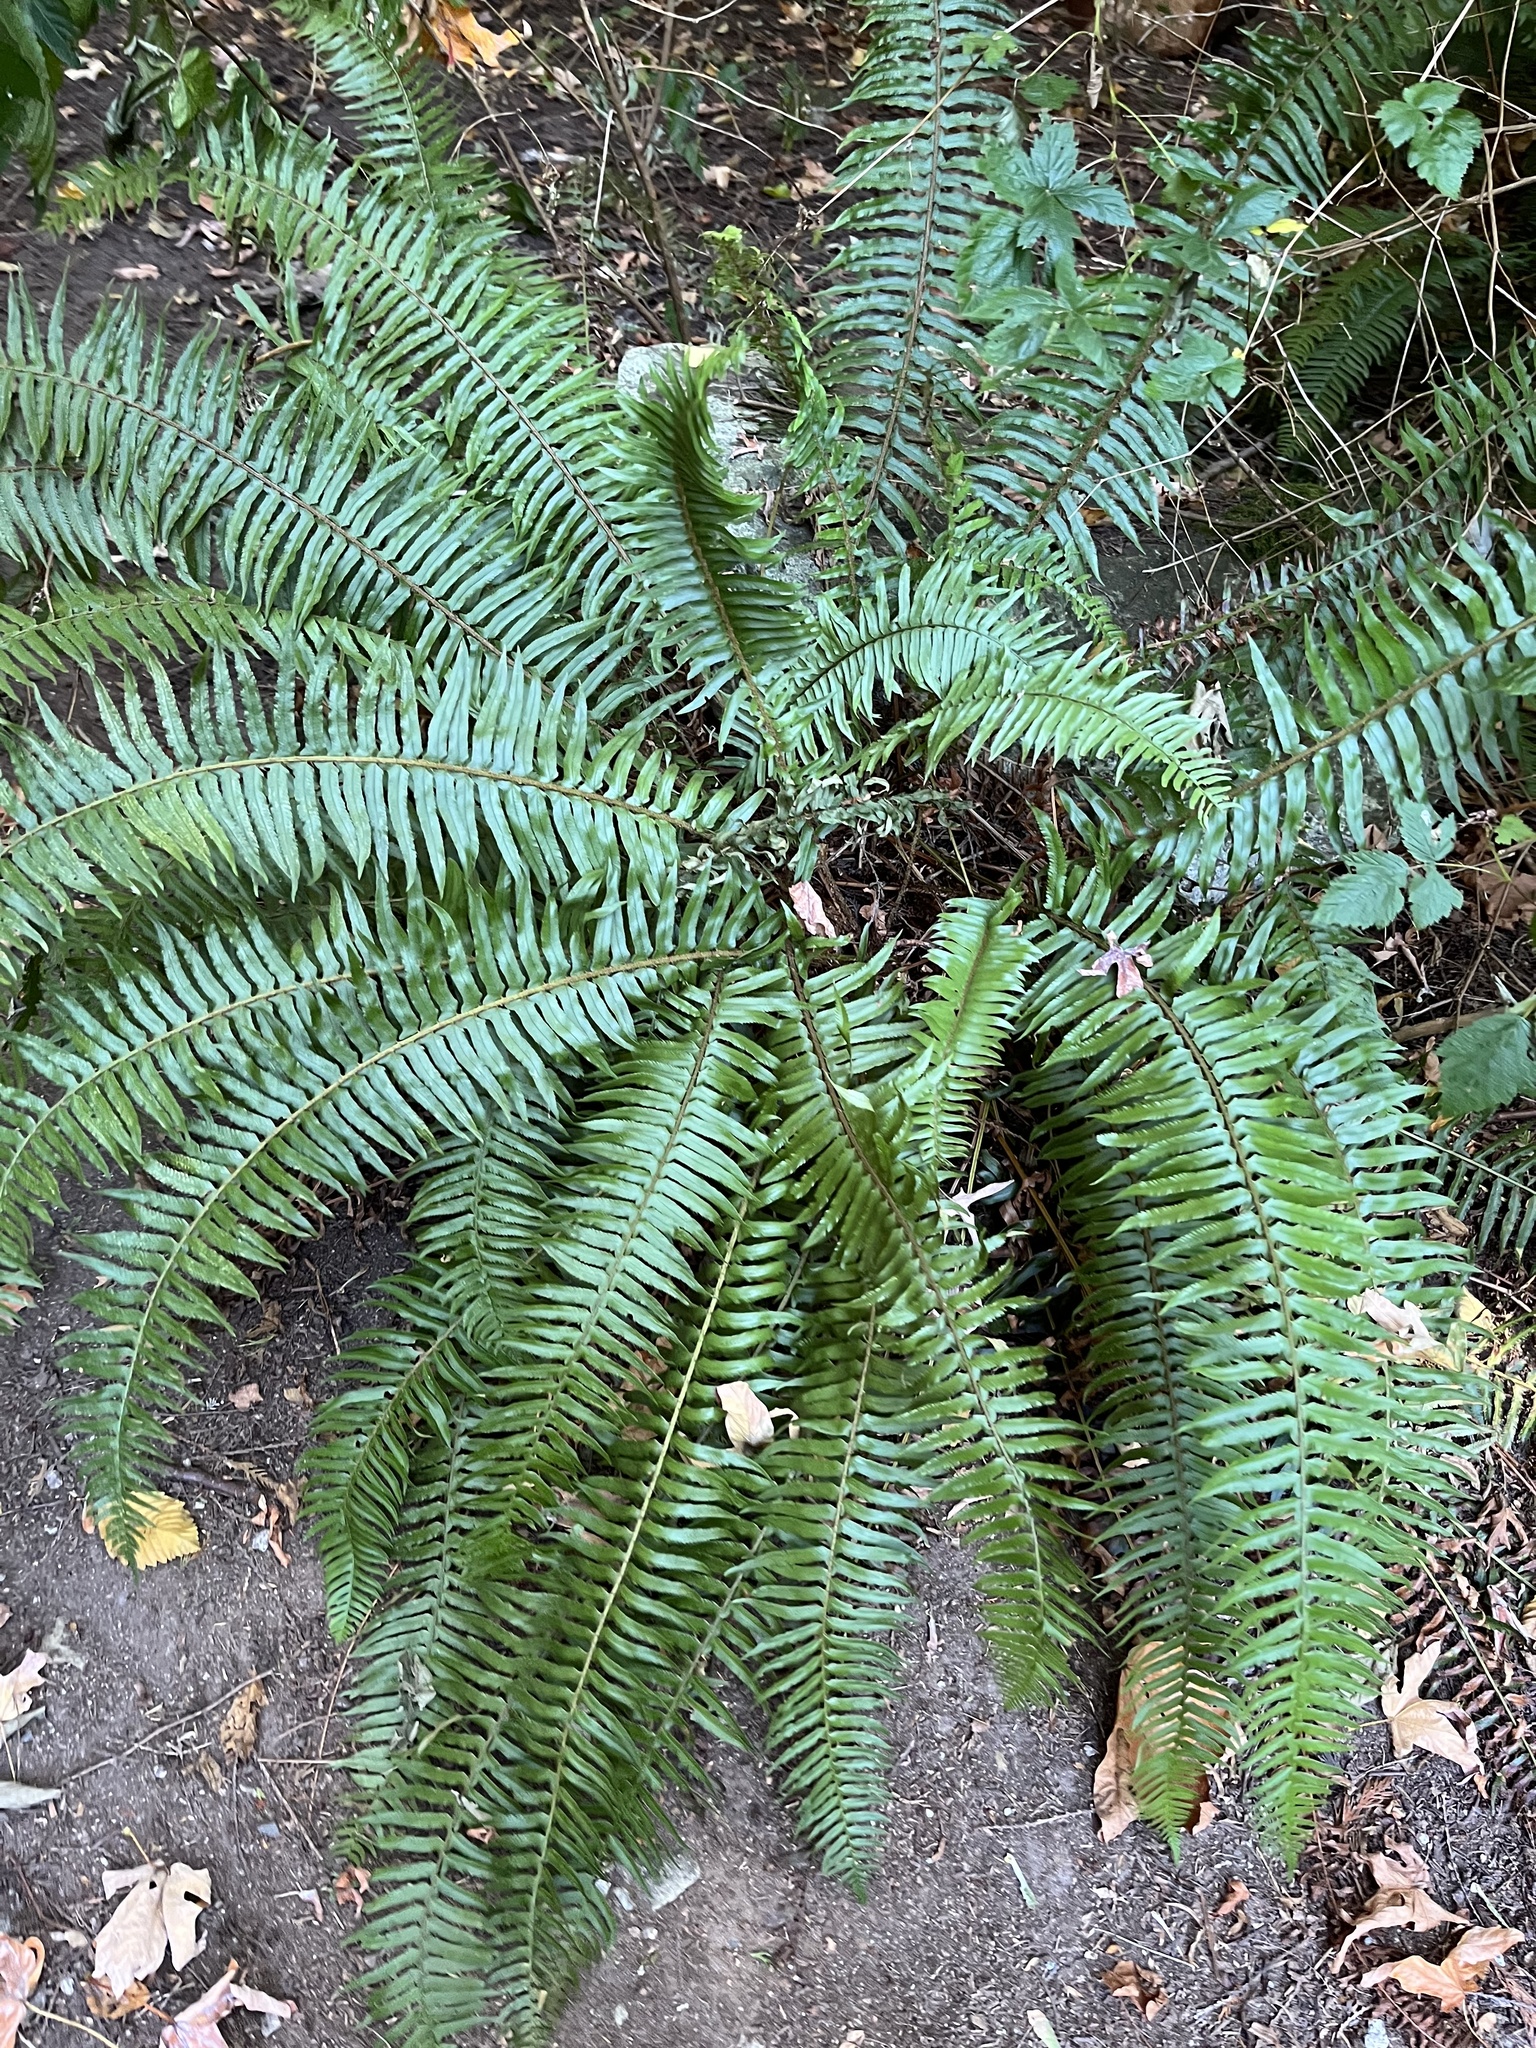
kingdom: Plantae
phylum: Tracheophyta
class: Polypodiopsida
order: Polypodiales
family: Dryopteridaceae
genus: Polystichum
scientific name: Polystichum munitum
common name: Western sword-fern
